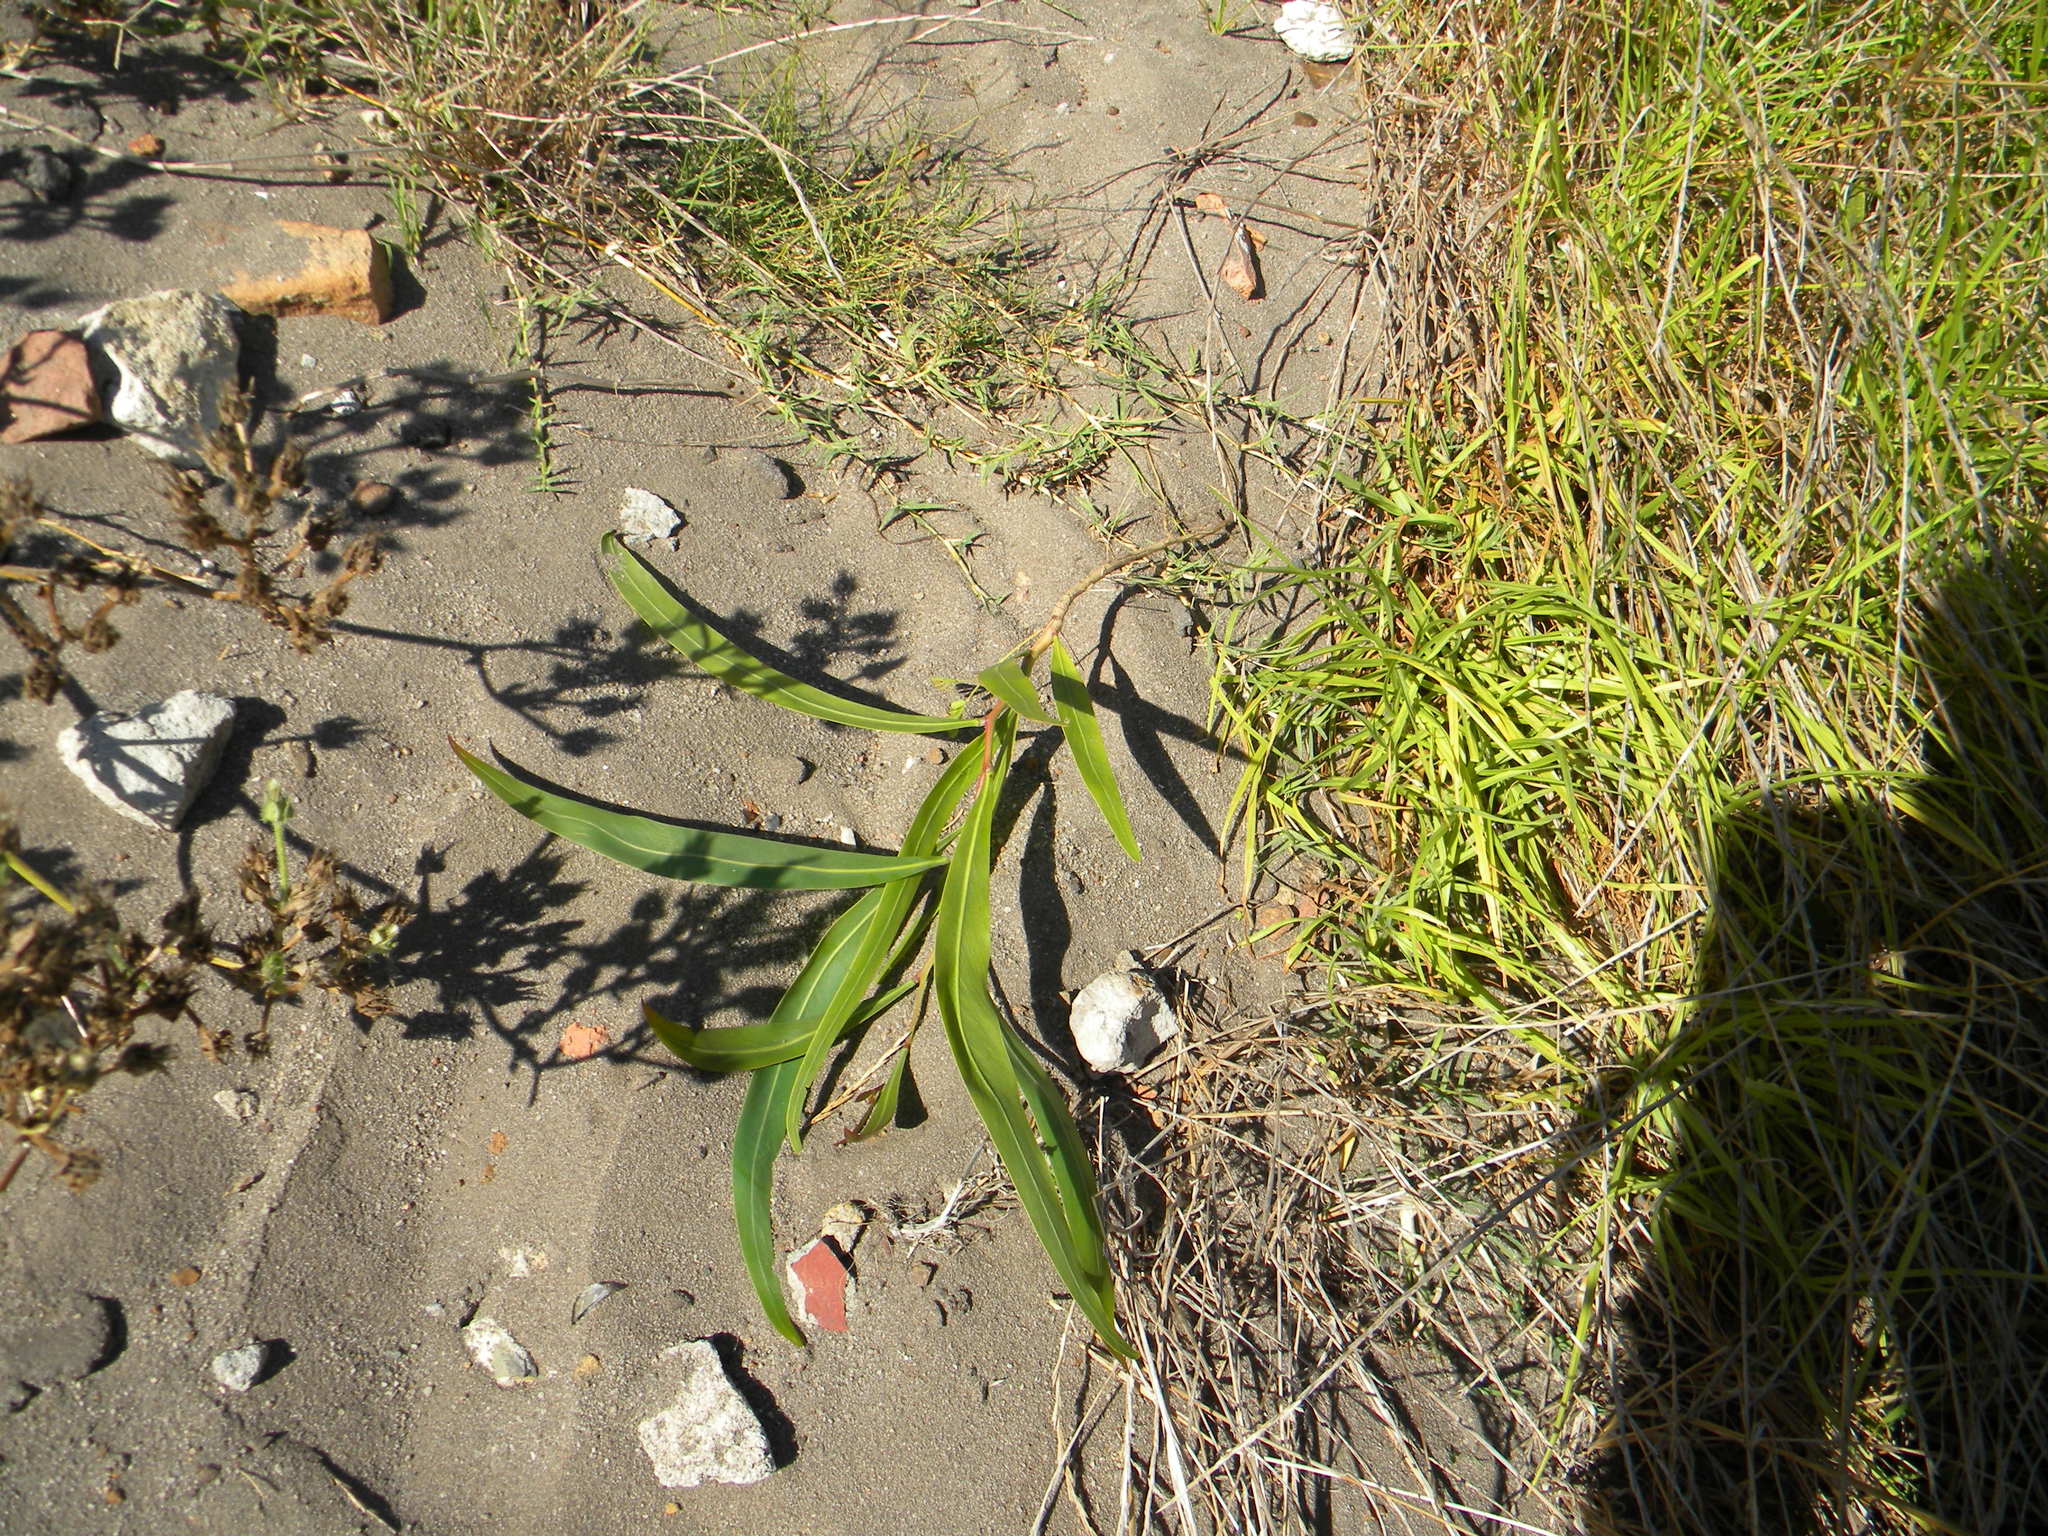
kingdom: Plantae
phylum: Tracheophyta
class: Magnoliopsida
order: Fabales
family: Fabaceae
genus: Acacia
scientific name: Acacia saligna
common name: Orange wattle
